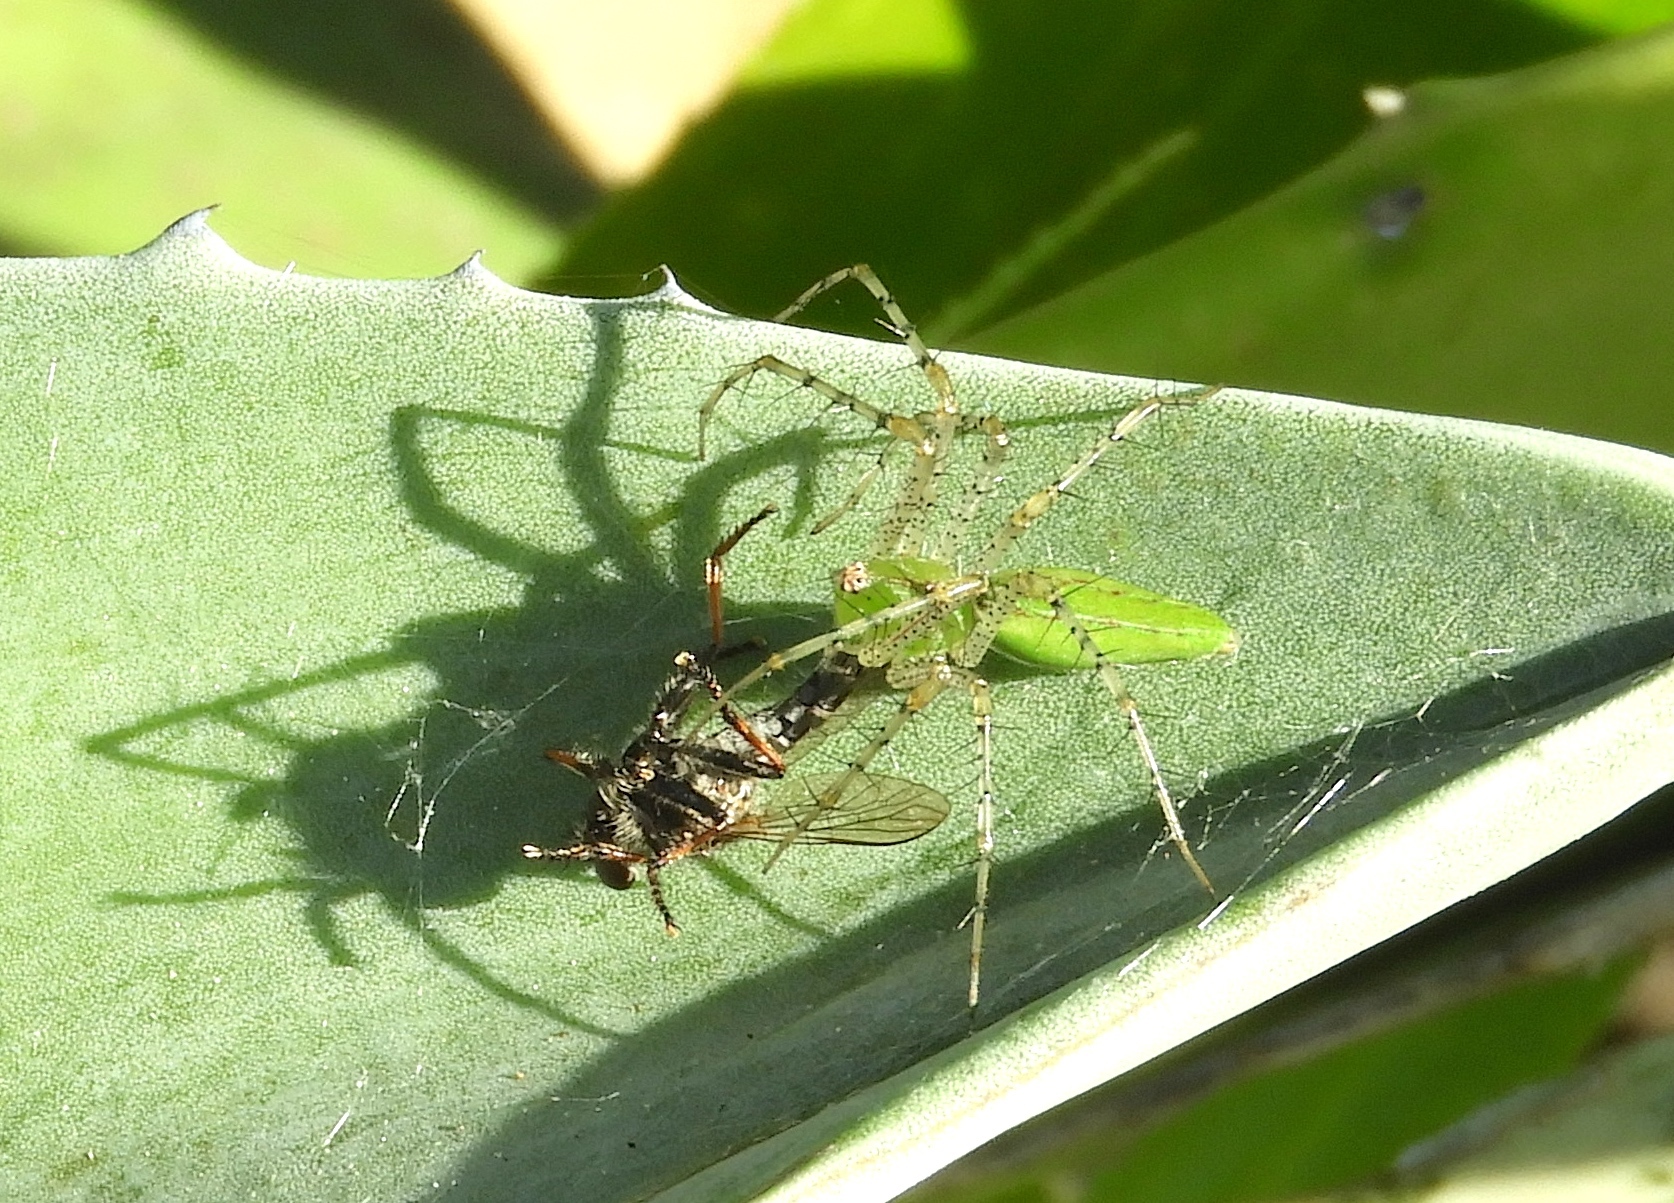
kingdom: Animalia
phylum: Arthropoda
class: Arachnida
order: Araneae
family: Oxyopidae
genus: Peucetia
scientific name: Peucetia
